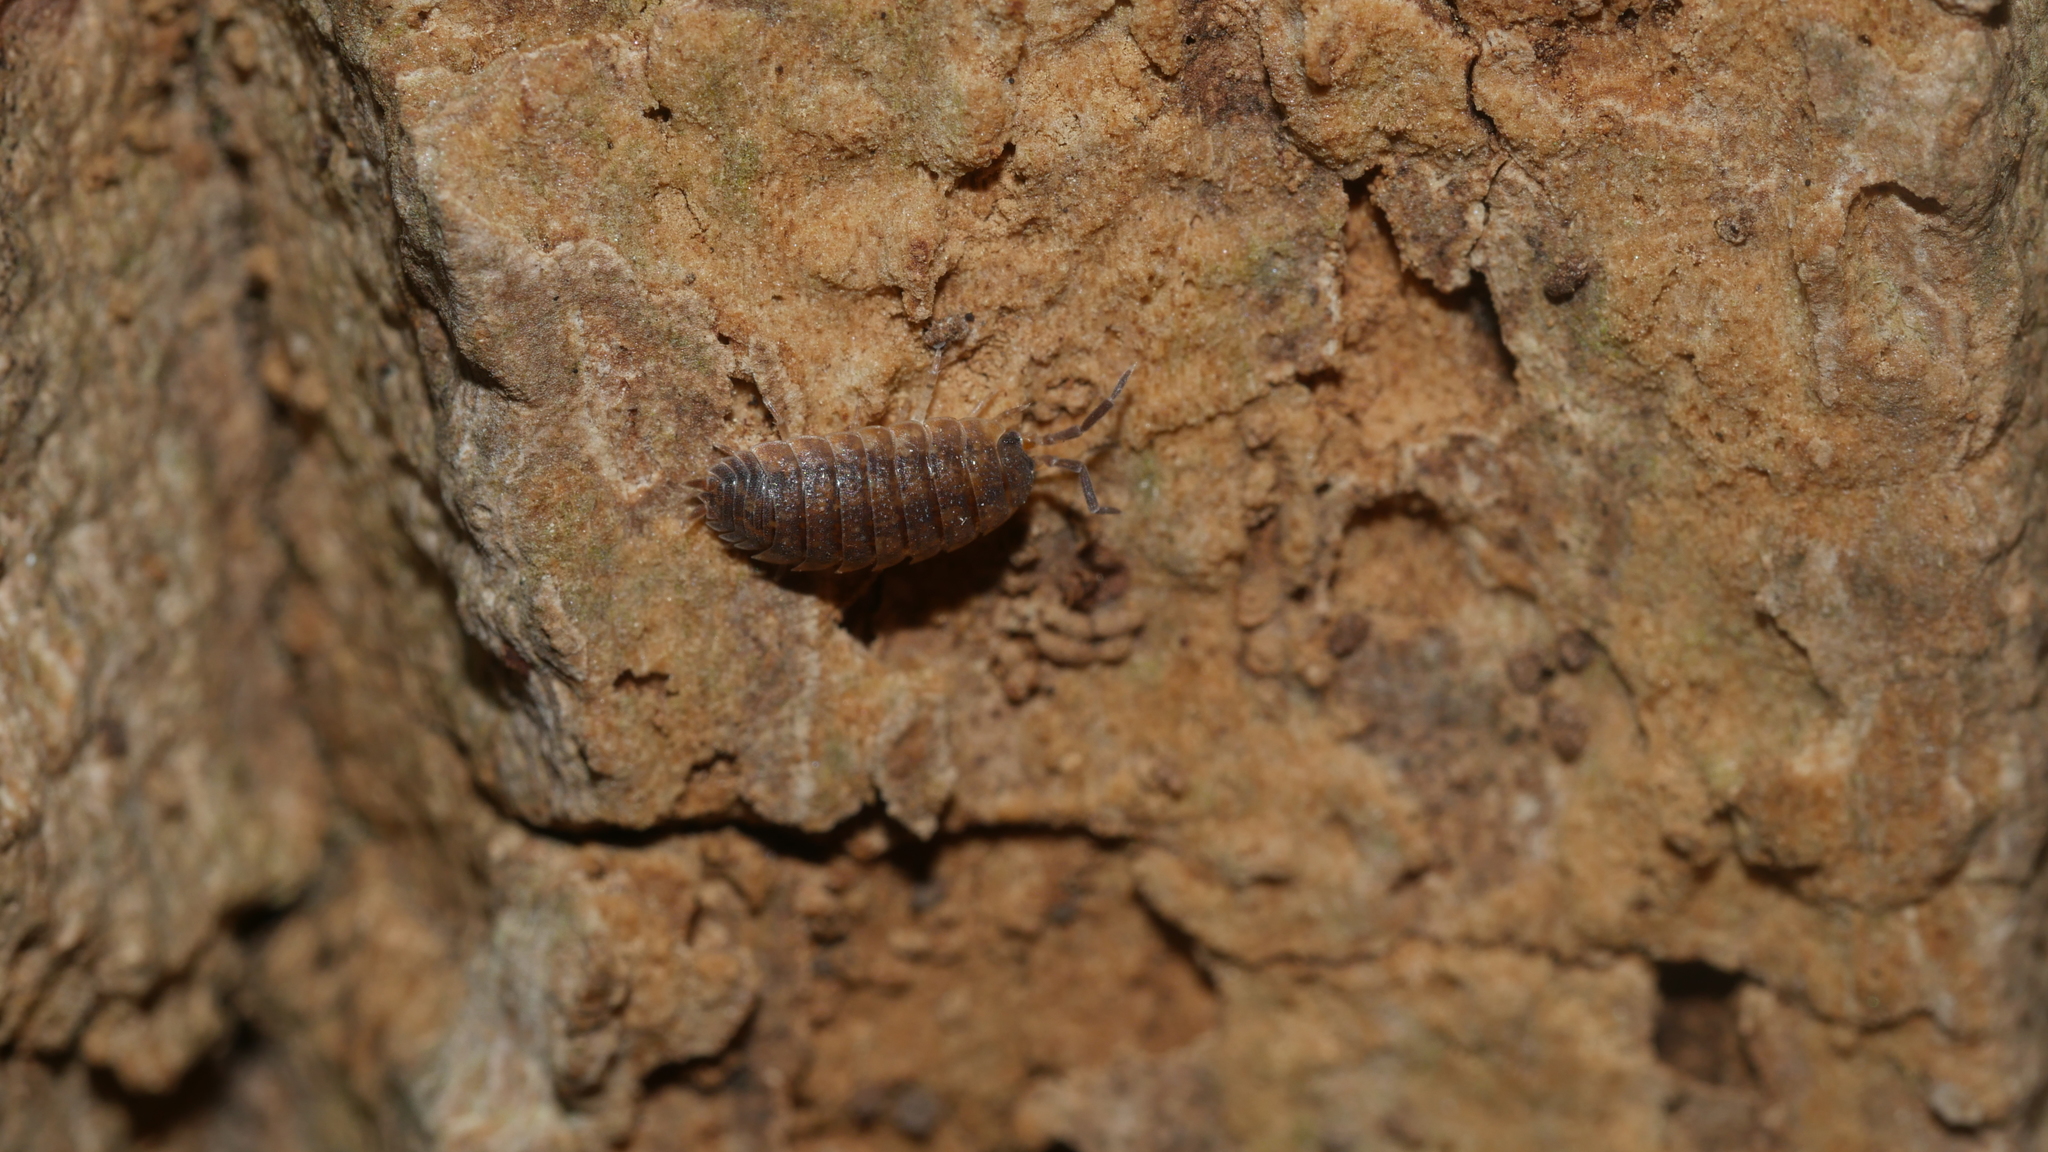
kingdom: Animalia
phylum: Arthropoda
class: Malacostraca
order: Isopoda
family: Porcellionidae
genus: Porcellio
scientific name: Porcellio scaber
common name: Common rough woodlouse
